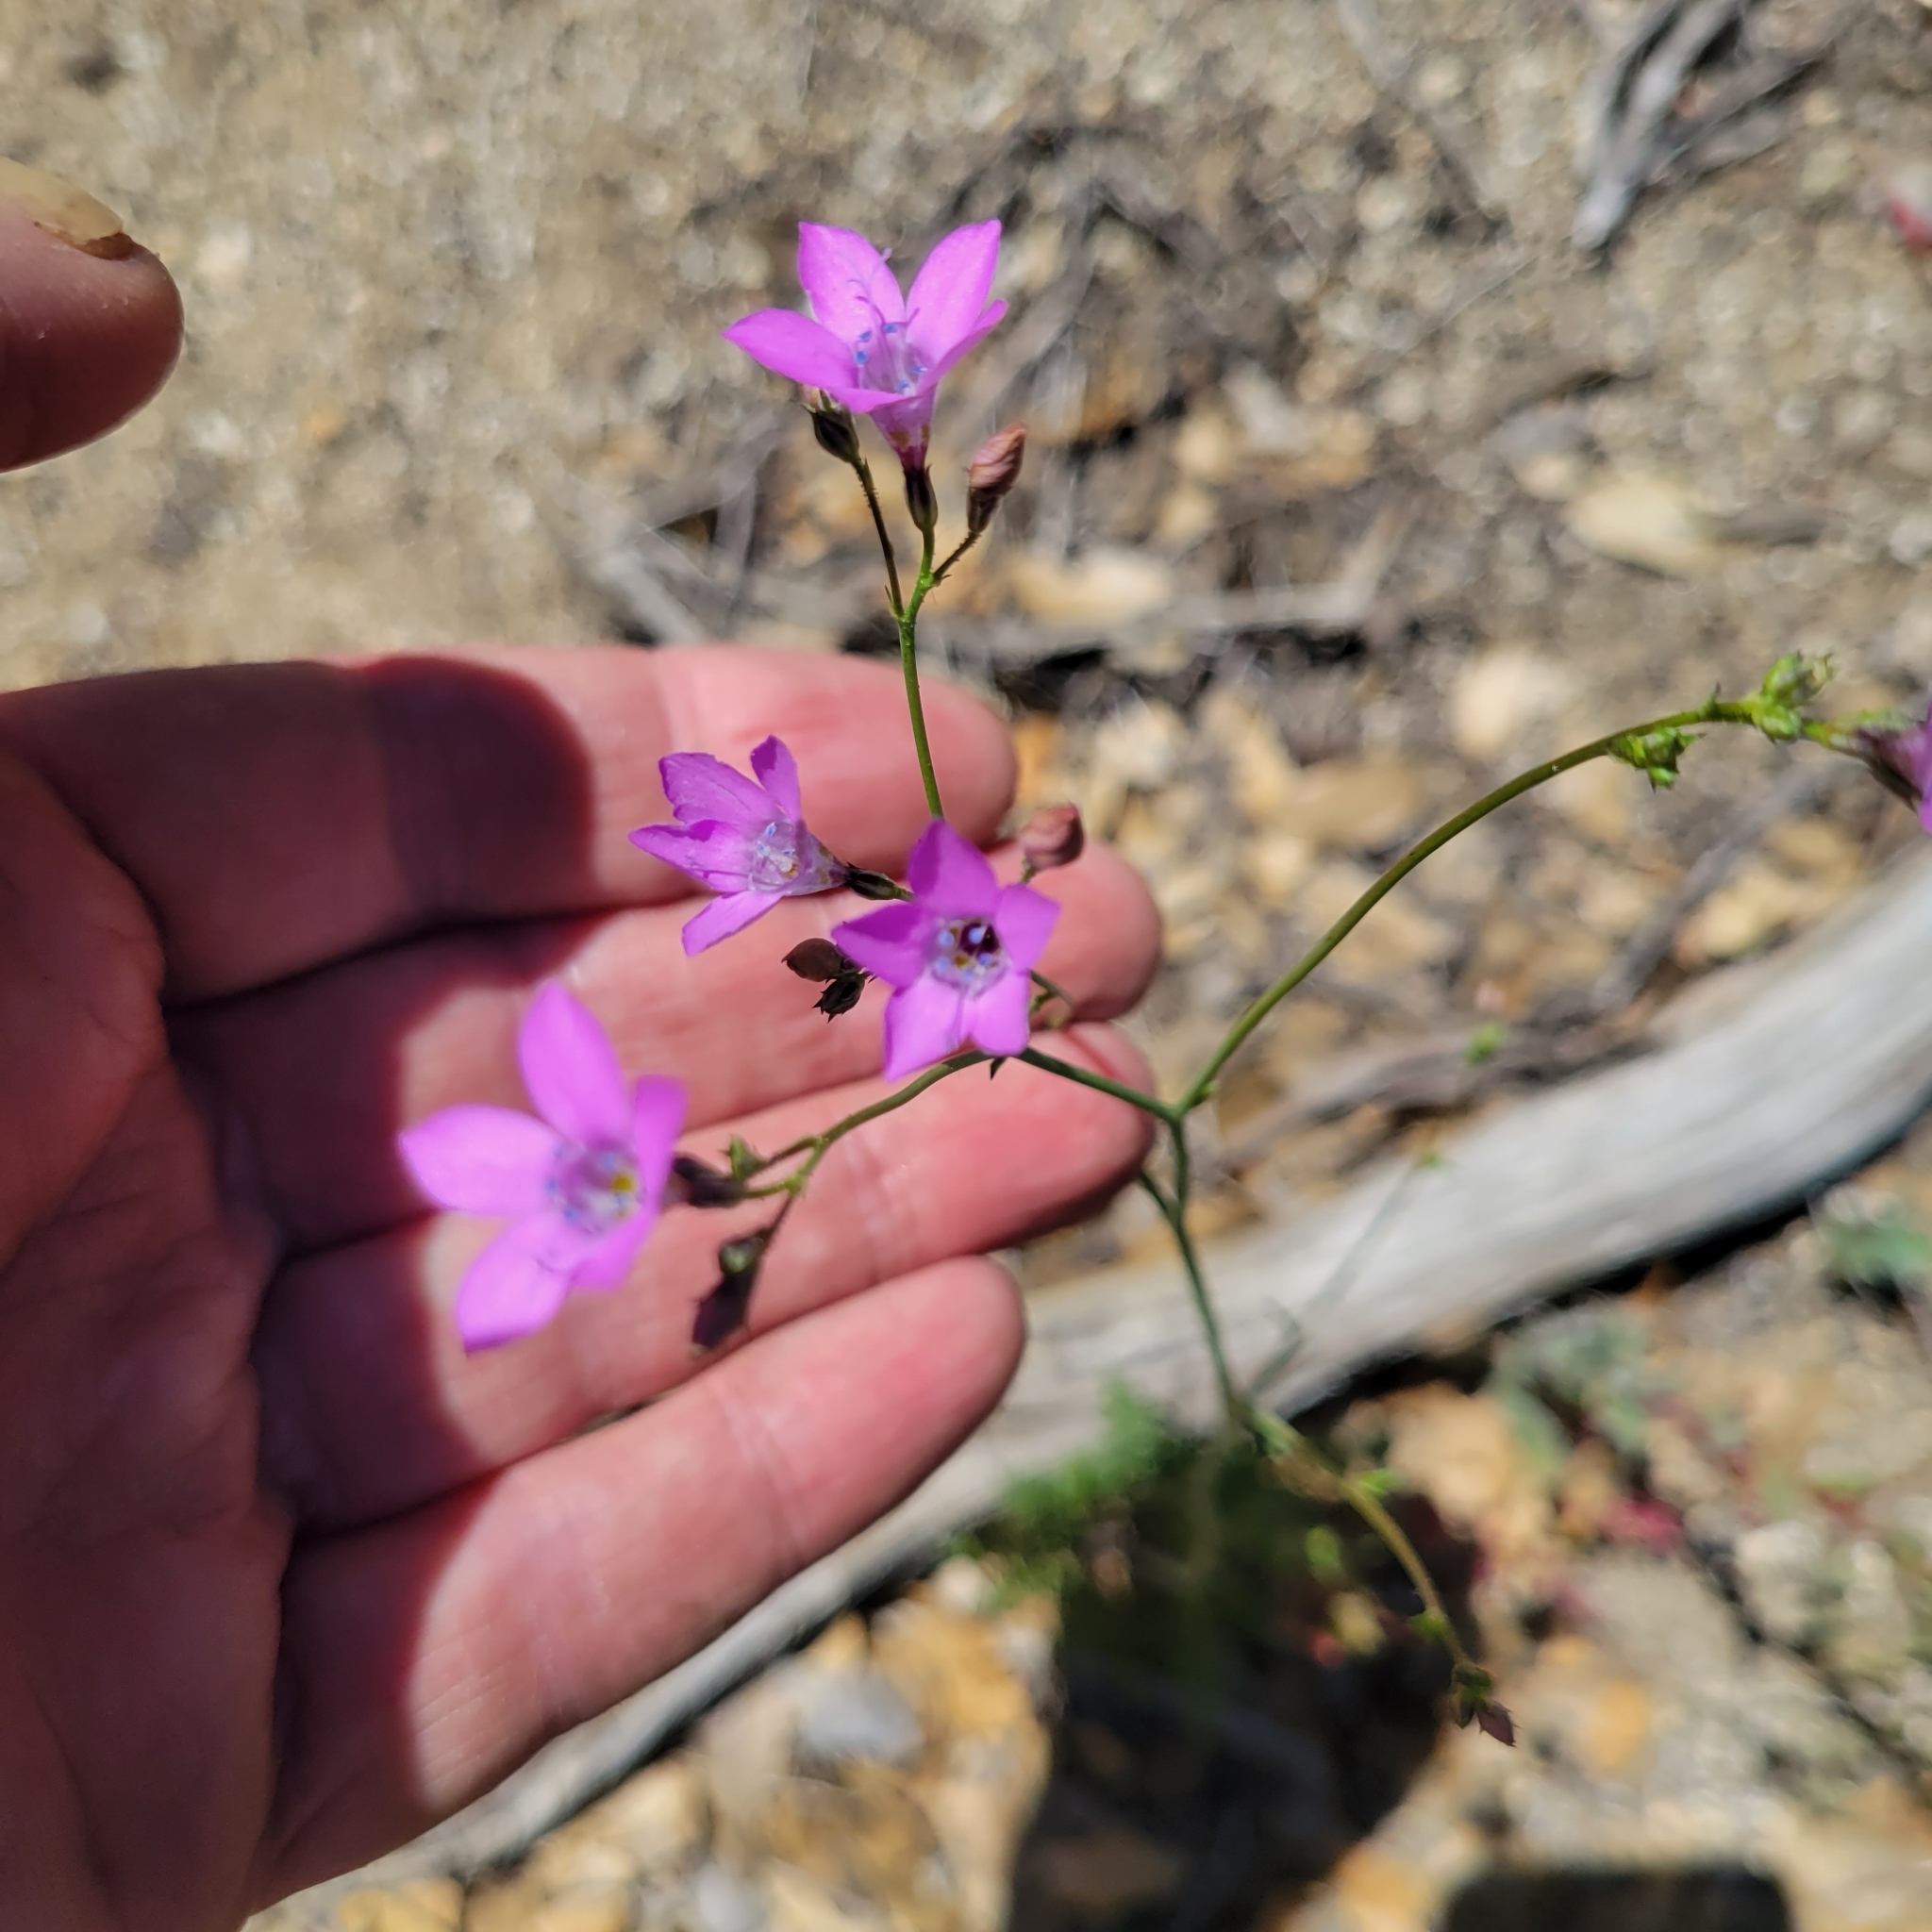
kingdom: Plantae
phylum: Tracheophyta
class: Magnoliopsida
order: Ericales
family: Polemoniaceae
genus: Saltugilia
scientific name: Saltugilia splendens
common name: Grinnell's gilia
